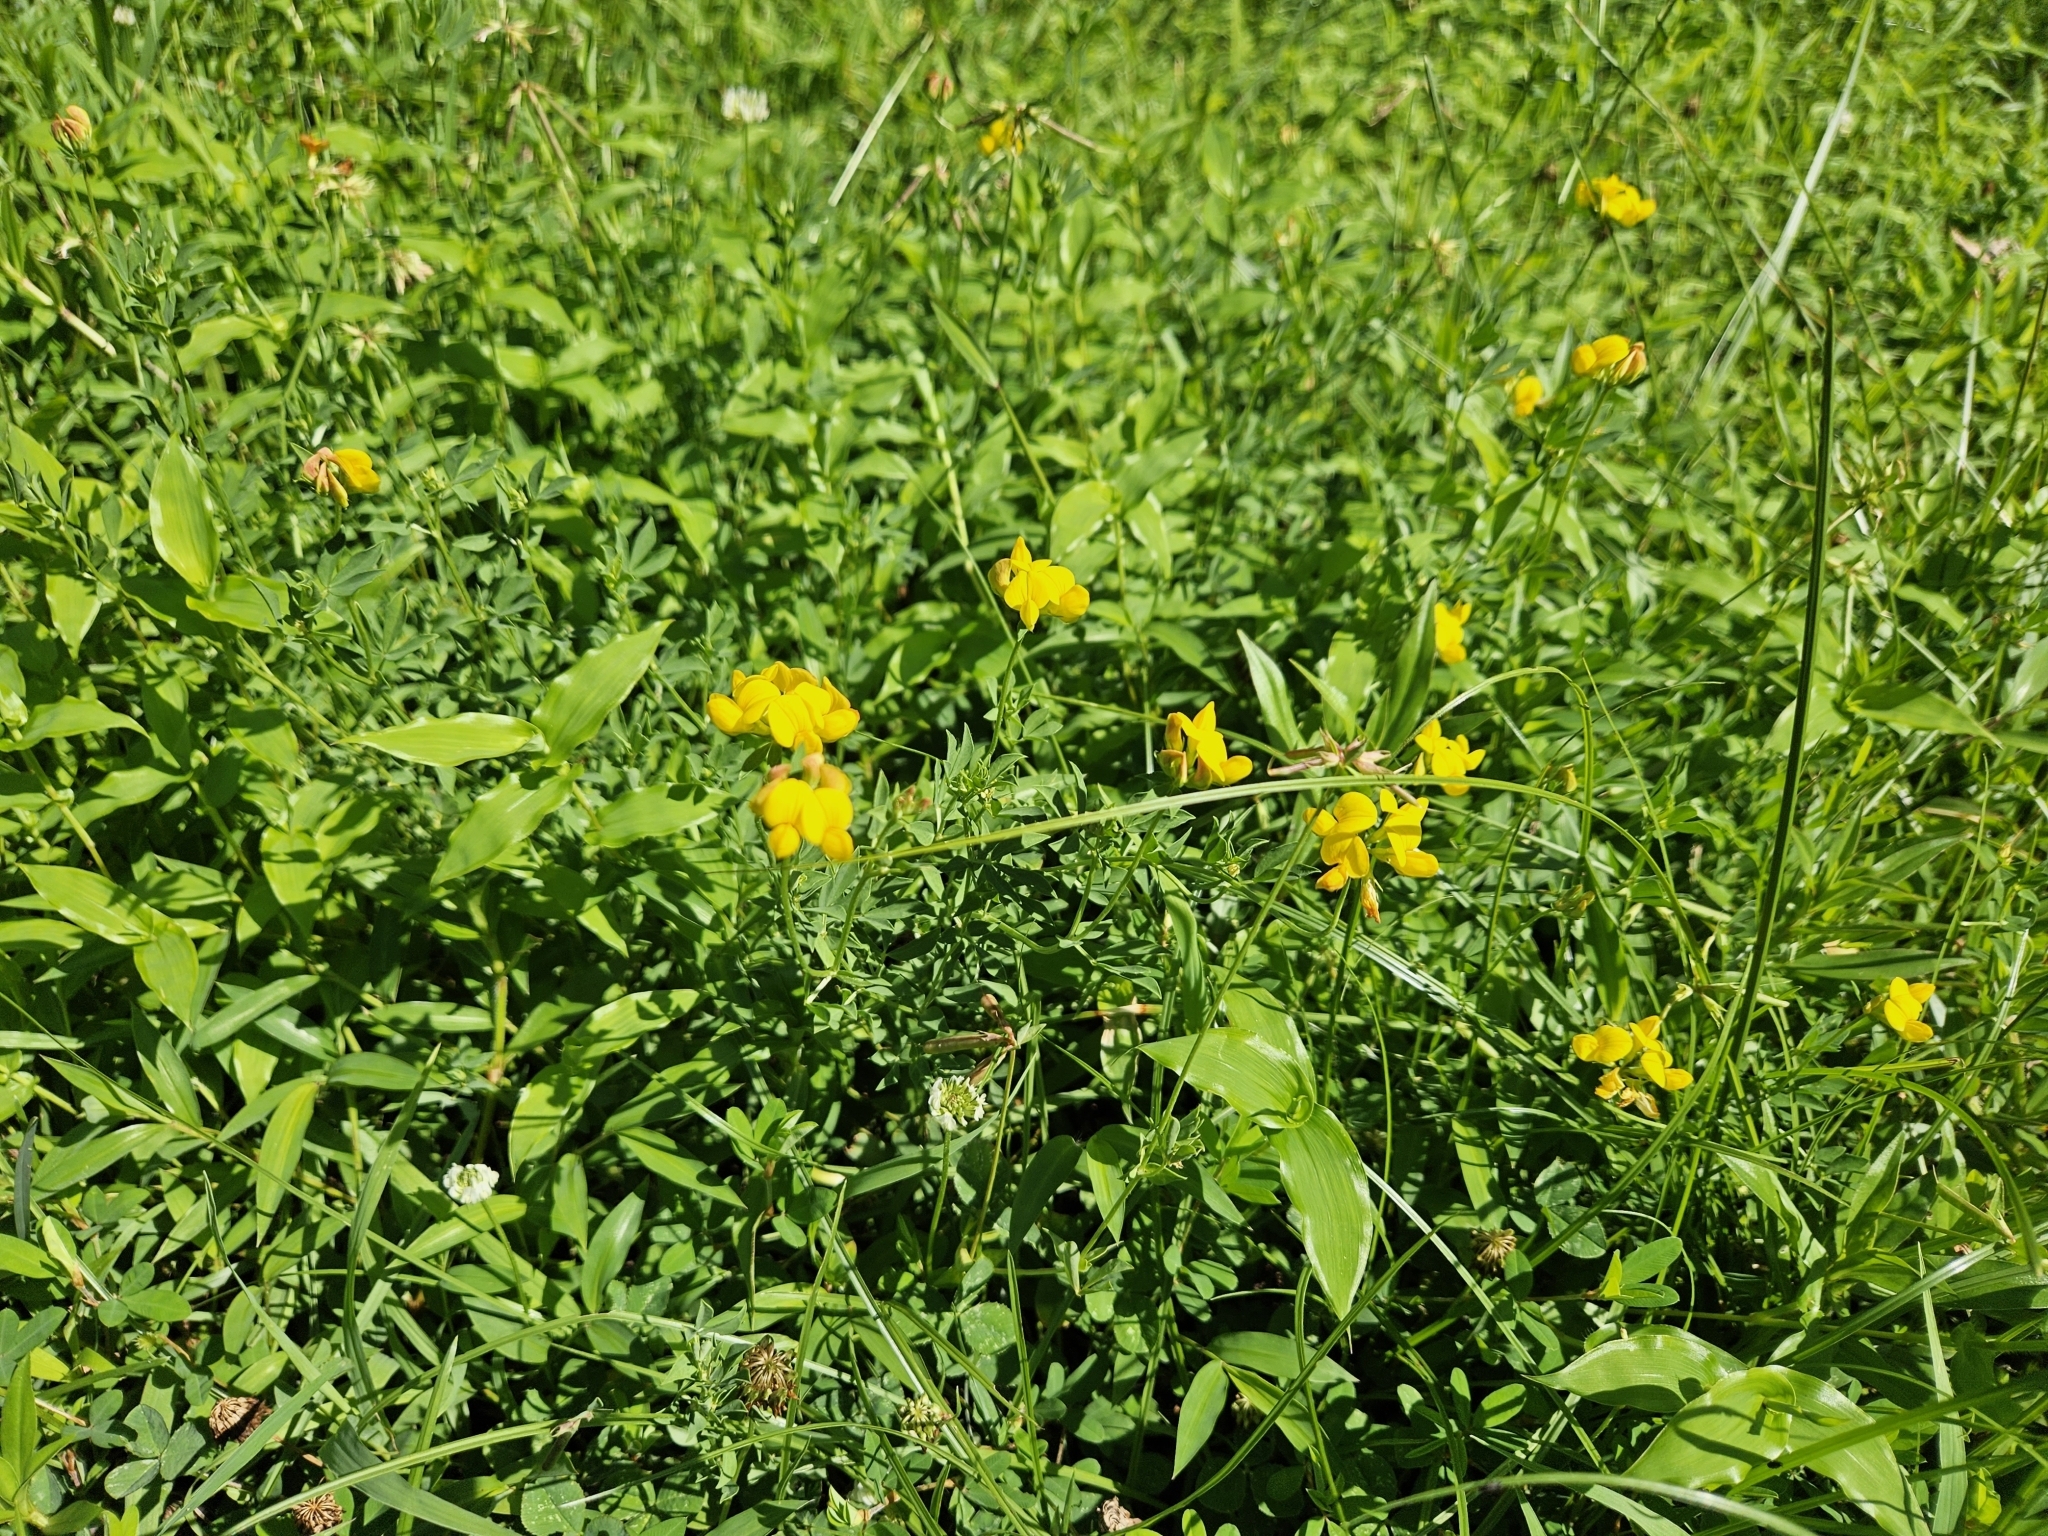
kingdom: Plantae
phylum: Tracheophyta
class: Magnoliopsida
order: Fabales
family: Fabaceae
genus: Lotus
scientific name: Lotus corniculatus
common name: Common bird's-foot-trefoil
